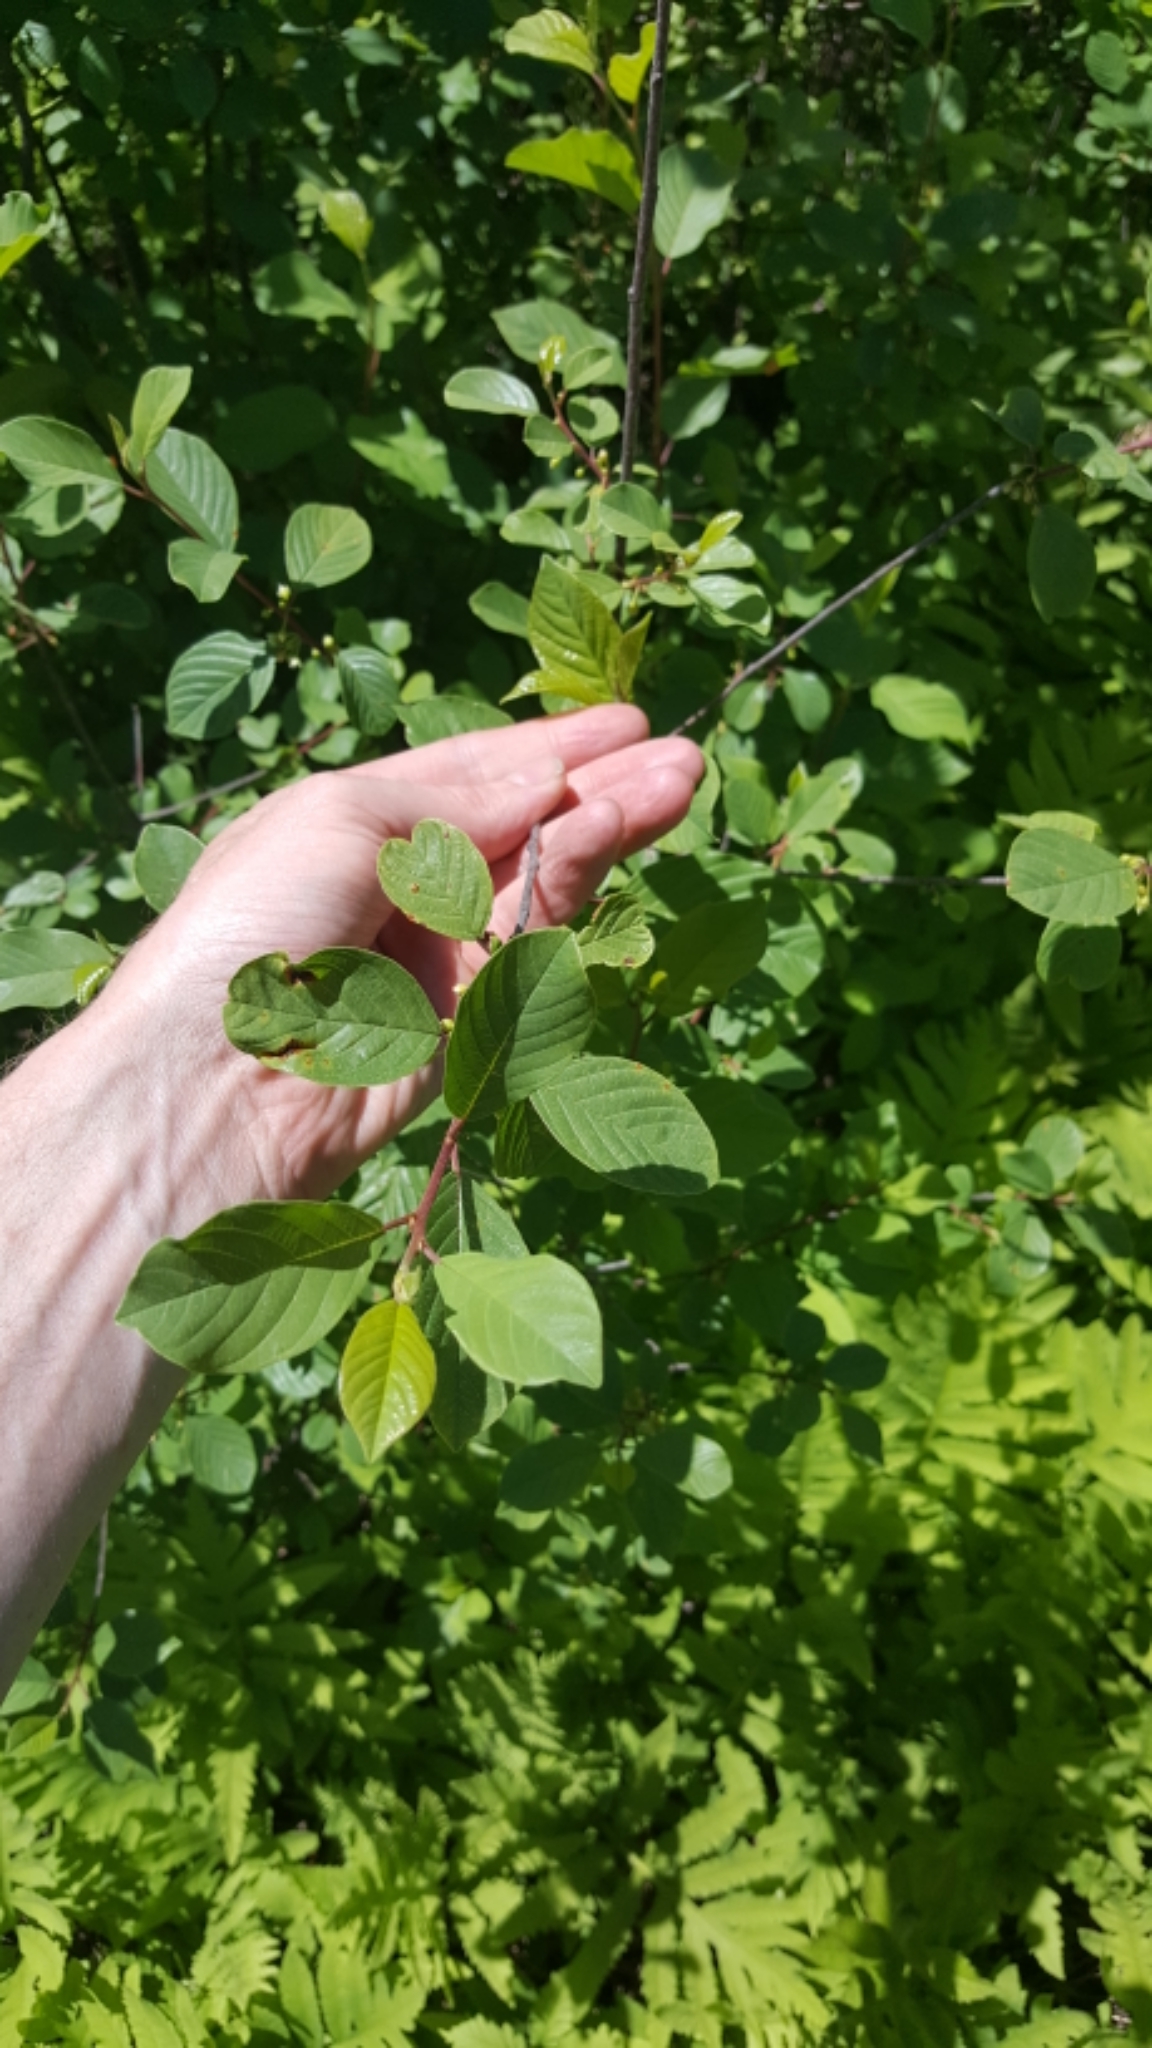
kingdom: Plantae
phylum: Tracheophyta
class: Magnoliopsida
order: Rosales
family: Rhamnaceae
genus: Frangula
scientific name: Frangula alnus
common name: Alder buckthorn
